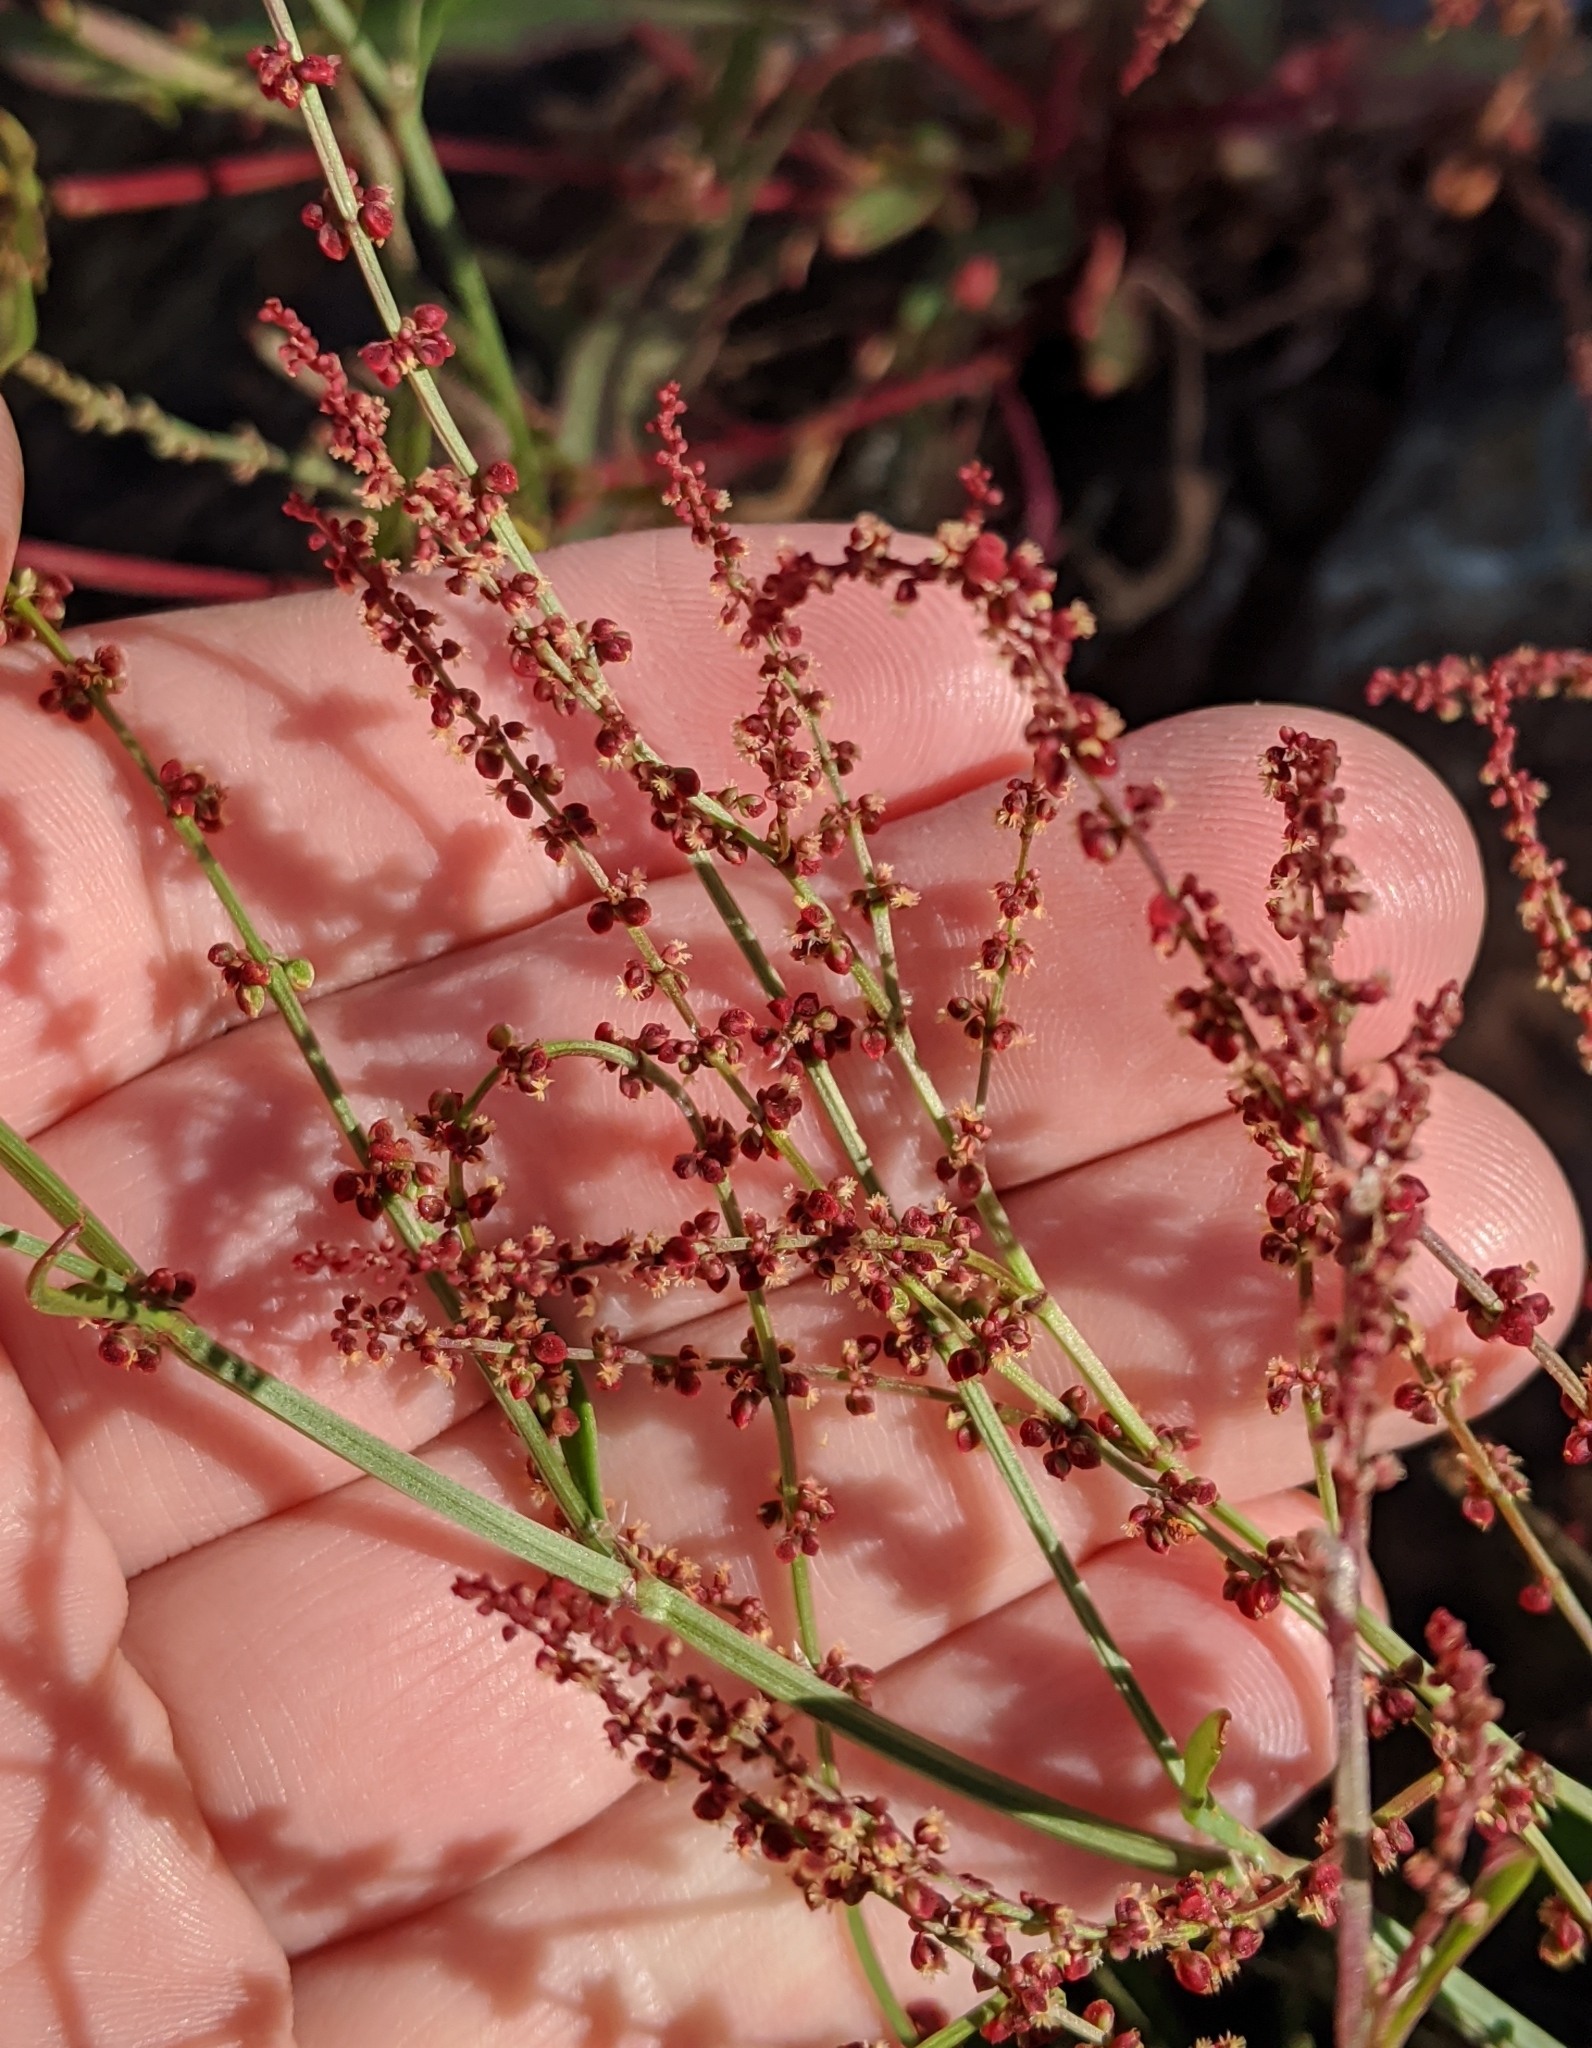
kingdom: Plantae
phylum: Tracheophyta
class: Magnoliopsida
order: Caryophyllales
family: Polygonaceae
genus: Rumex
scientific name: Rumex acetosella
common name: Common sheep sorrel
